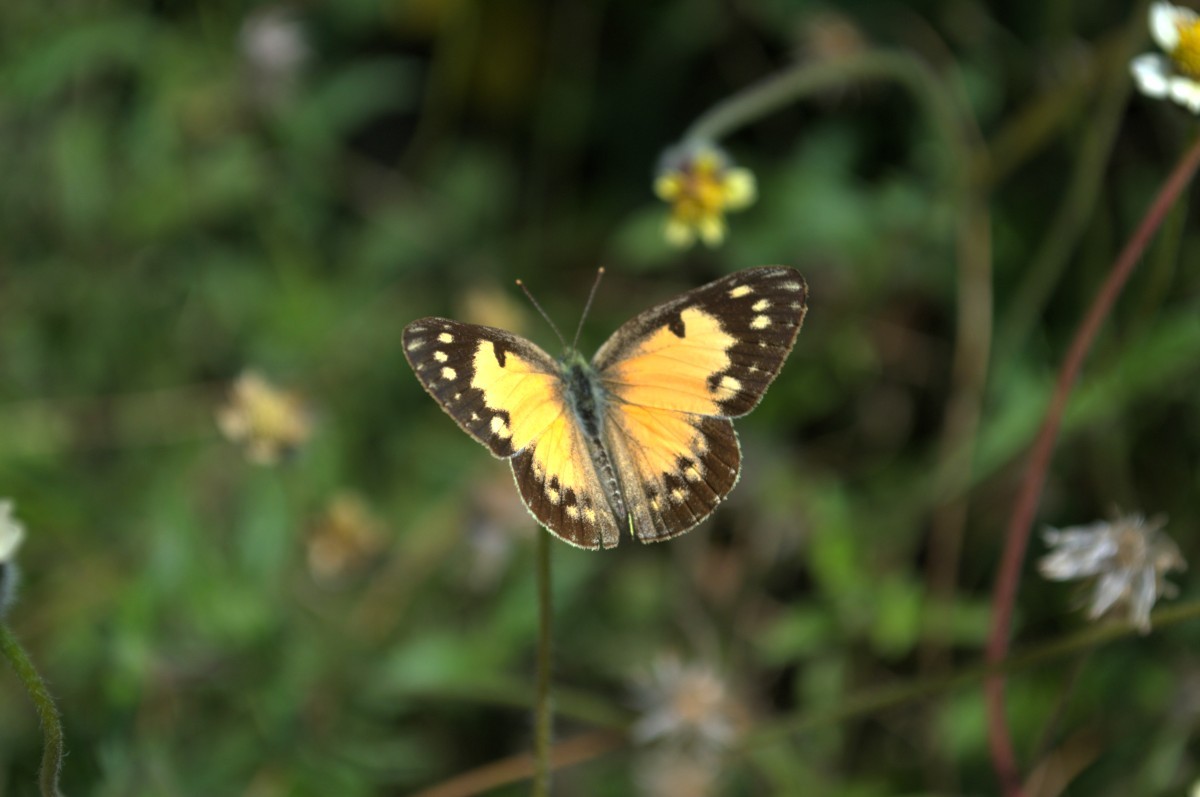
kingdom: Animalia
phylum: Arthropoda
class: Insecta
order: Lepidoptera
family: Pieridae
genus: Colotis
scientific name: Colotis amata
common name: Small salmon arab
